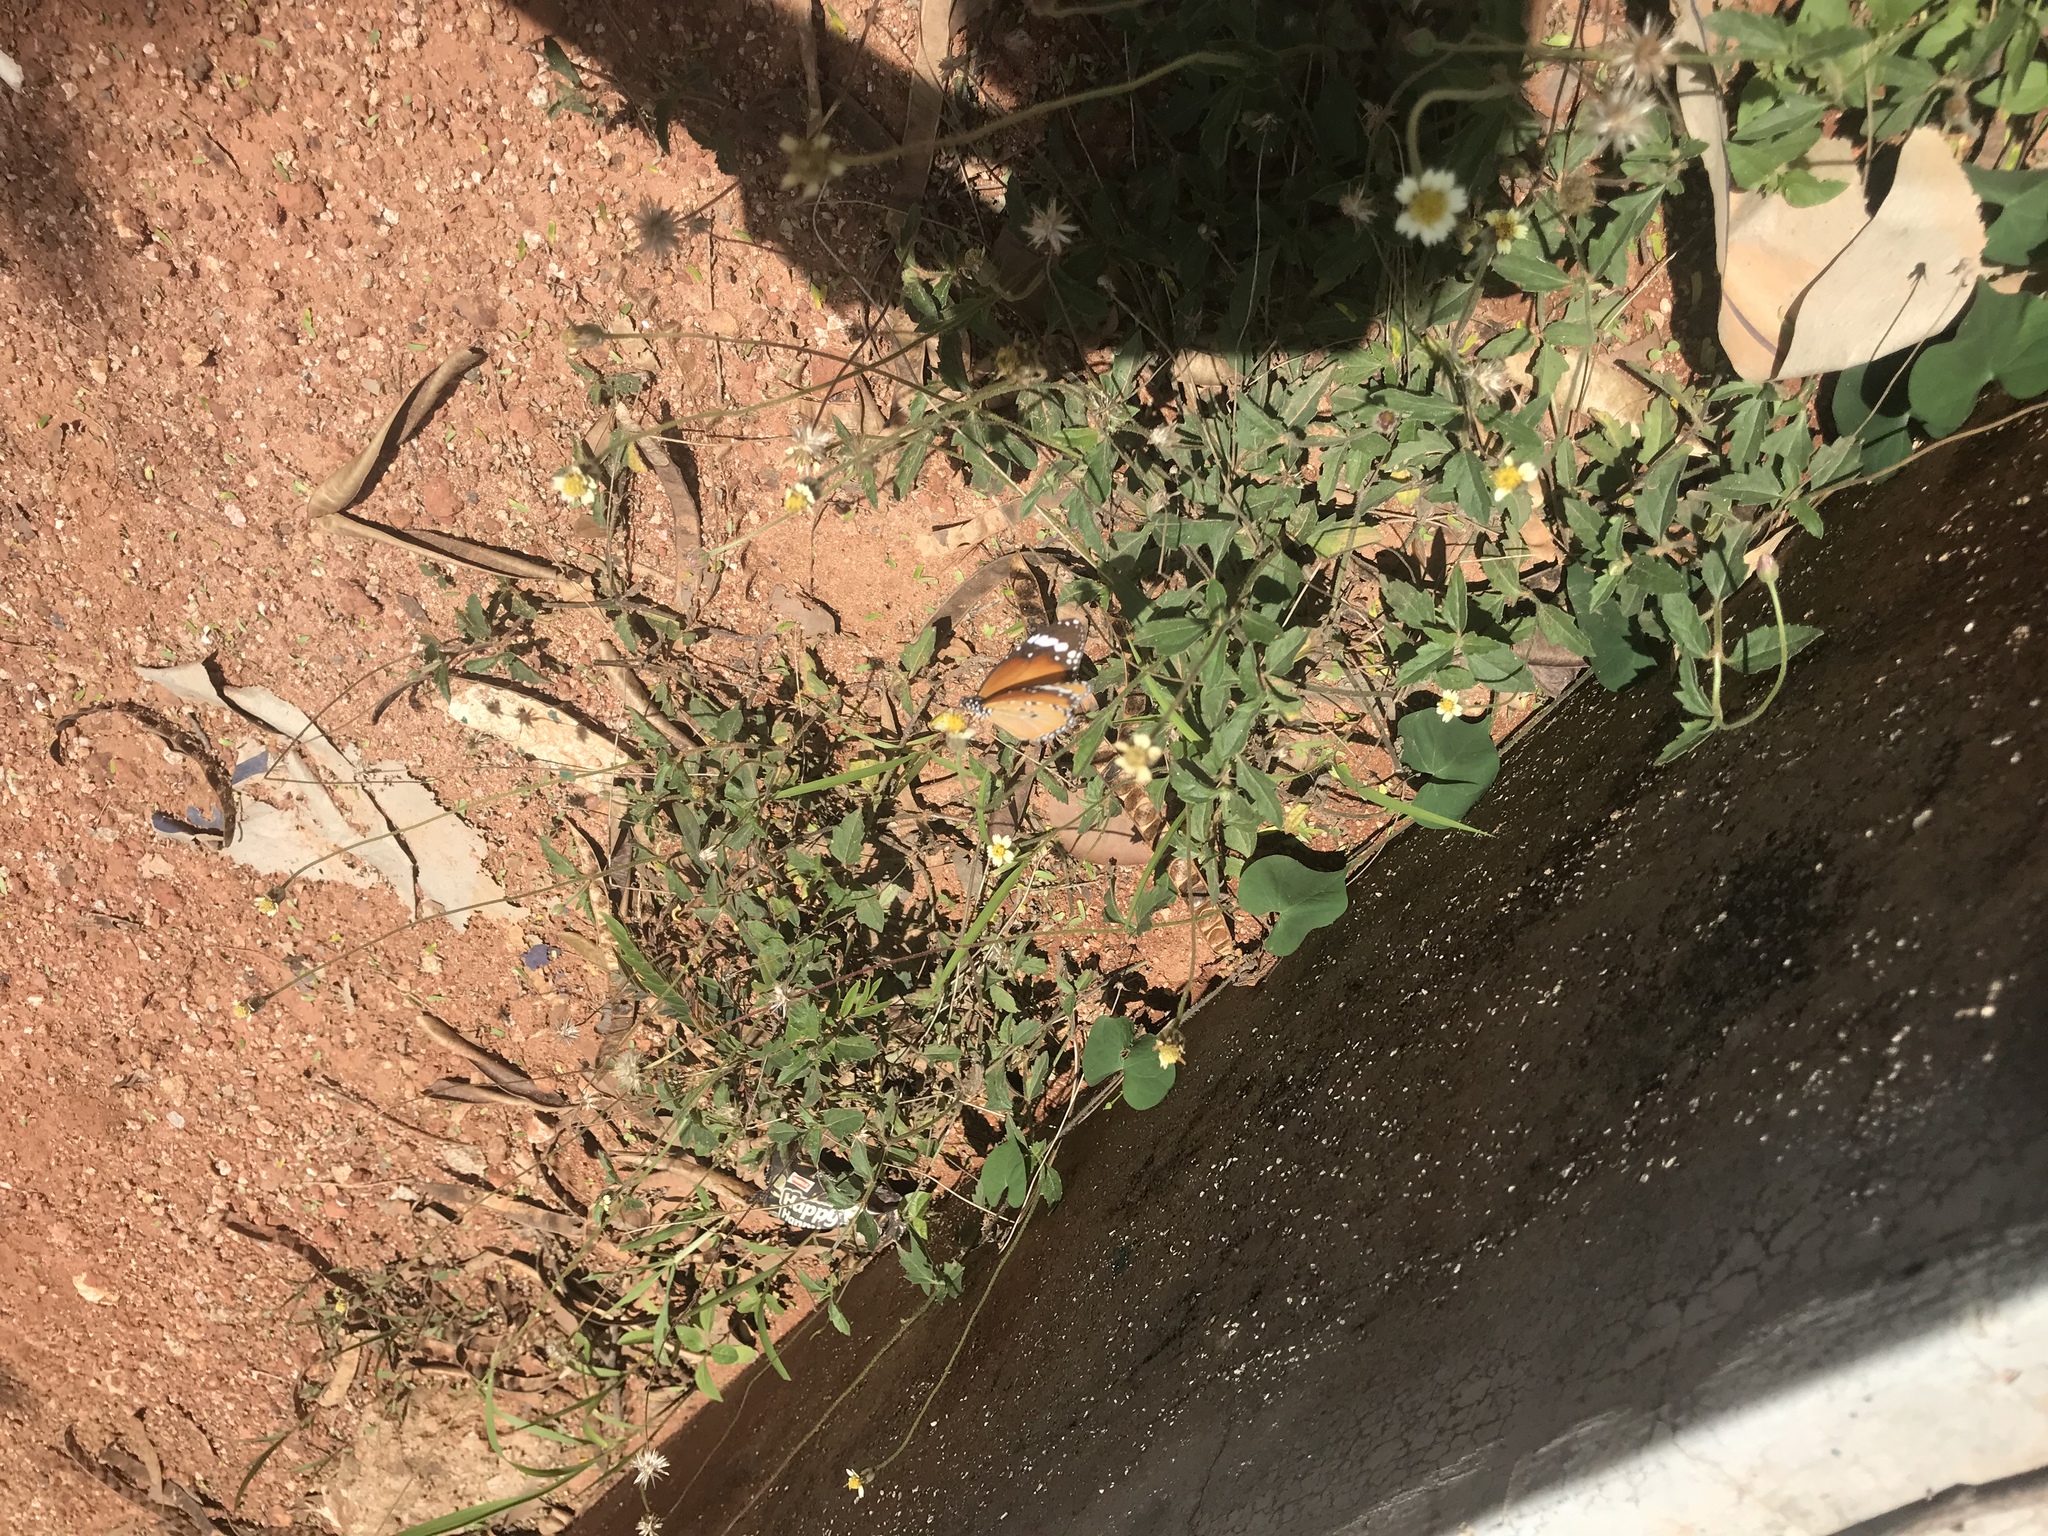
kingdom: Animalia
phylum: Arthropoda
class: Insecta
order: Lepidoptera
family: Nymphalidae
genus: Danaus
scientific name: Danaus chrysippus
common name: Plain tiger
